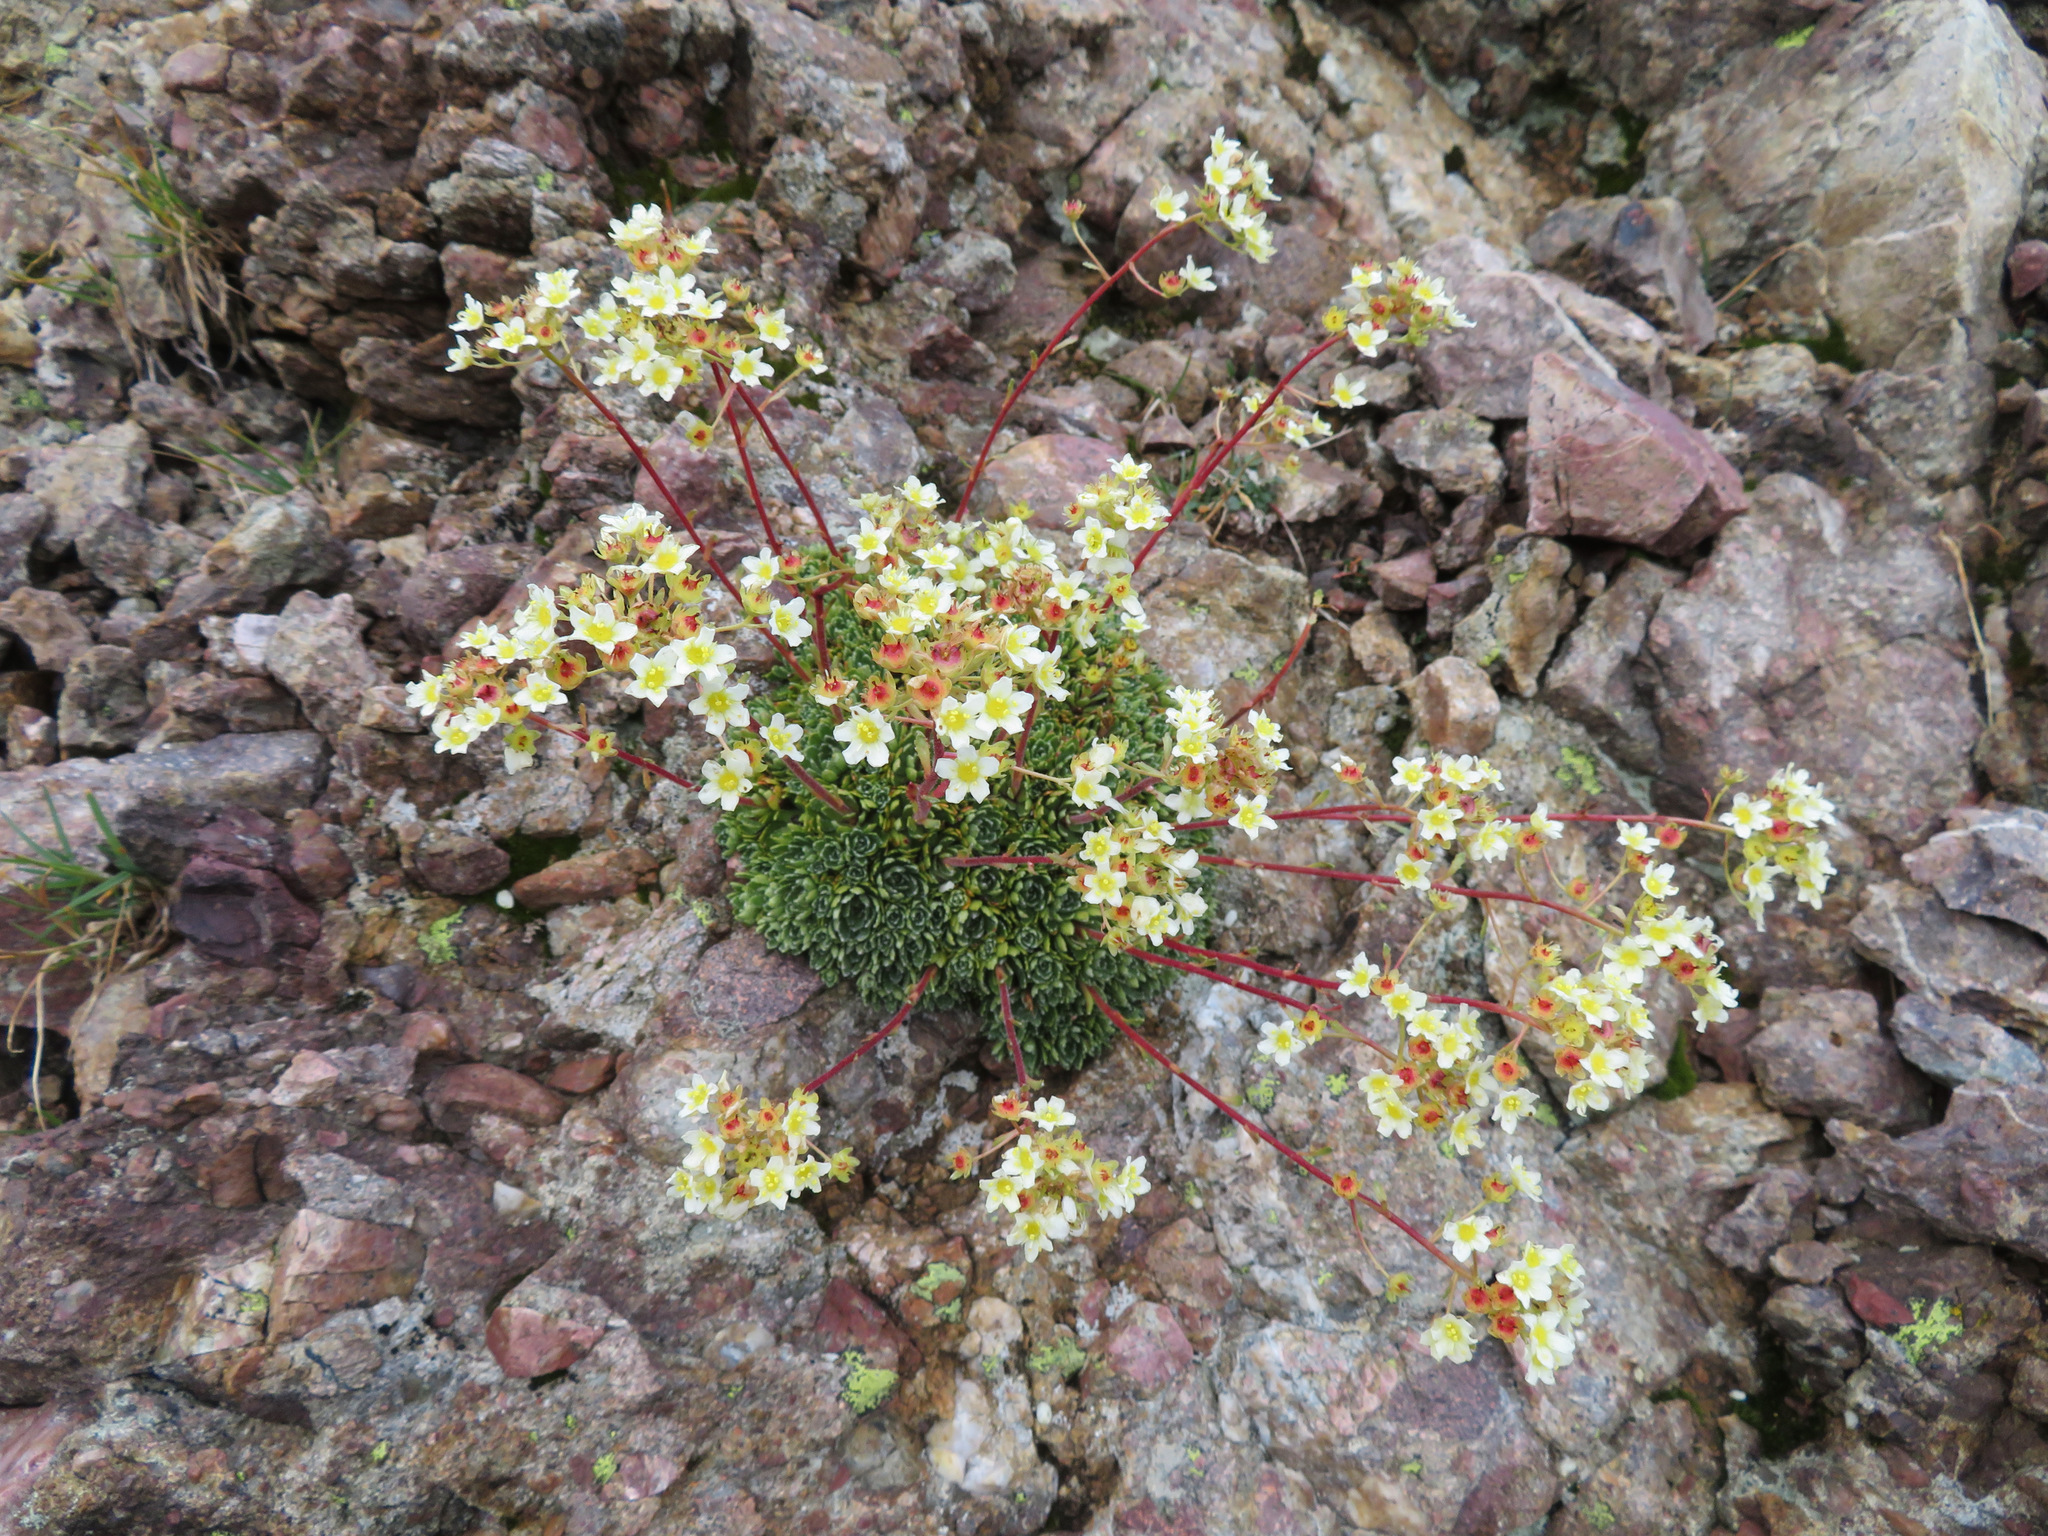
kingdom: Plantae
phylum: Tracheophyta
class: Magnoliopsida
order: Saxifragales
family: Saxifragaceae
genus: Saxifraga
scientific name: Saxifraga paniculata
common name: Livelong saxifrage
